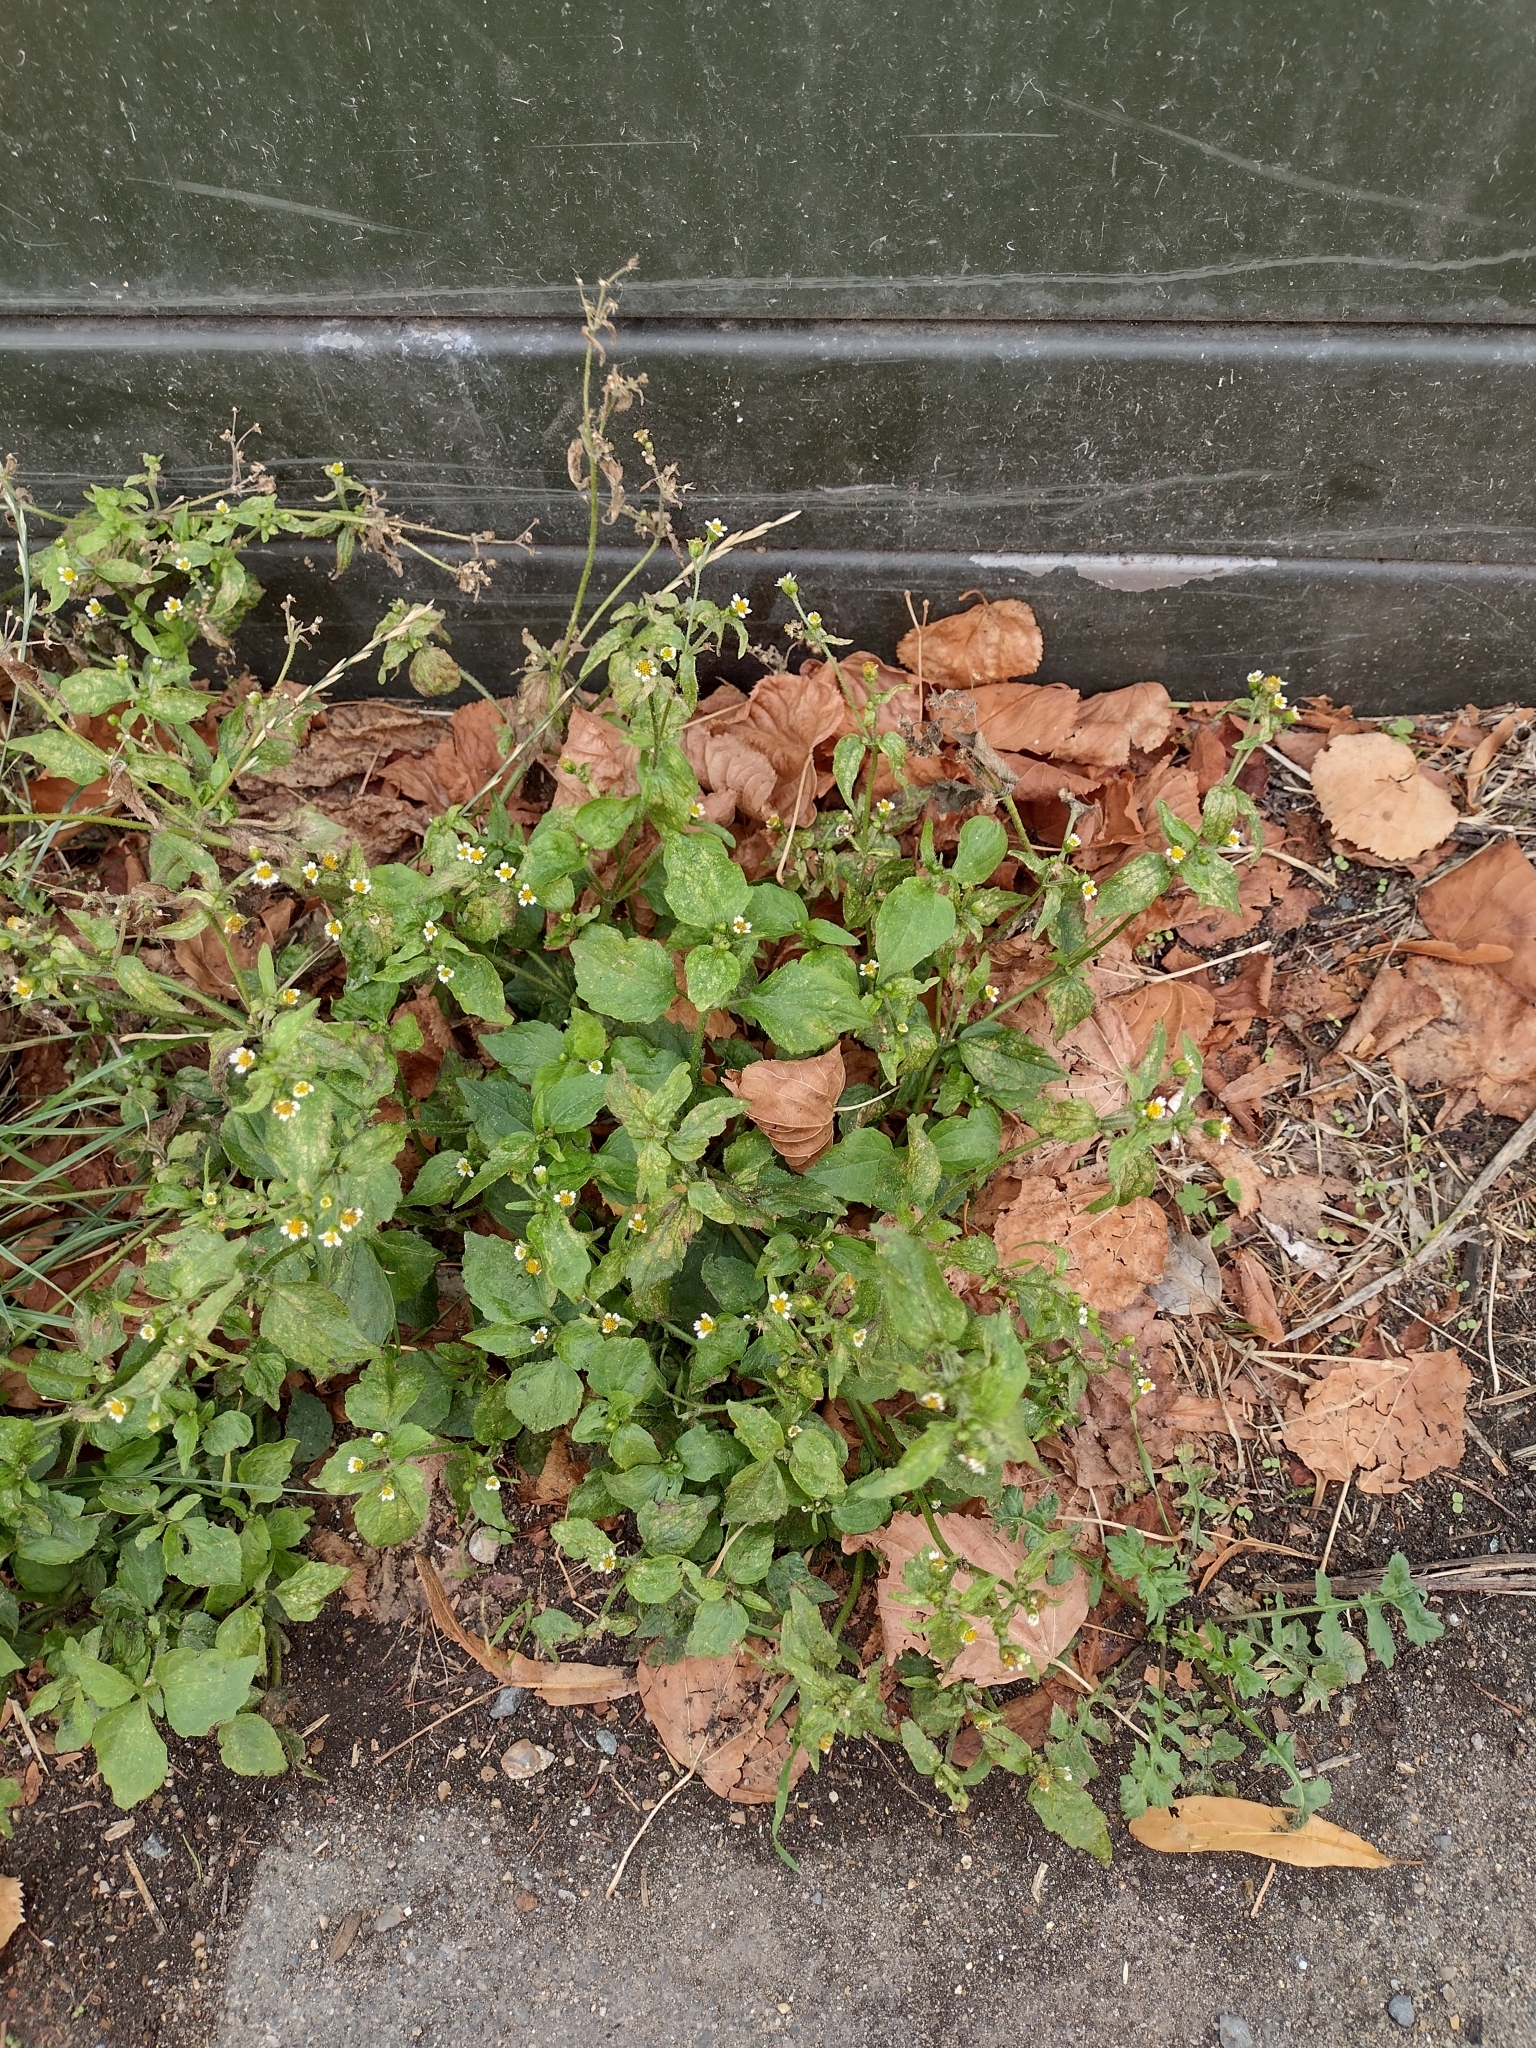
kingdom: Plantae
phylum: Tracheophyta
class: Magnoliopsida
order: Asterales
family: Asteraceae
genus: Galinsoga
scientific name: Galinsoga quadriradiata
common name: Shaggy soldier
